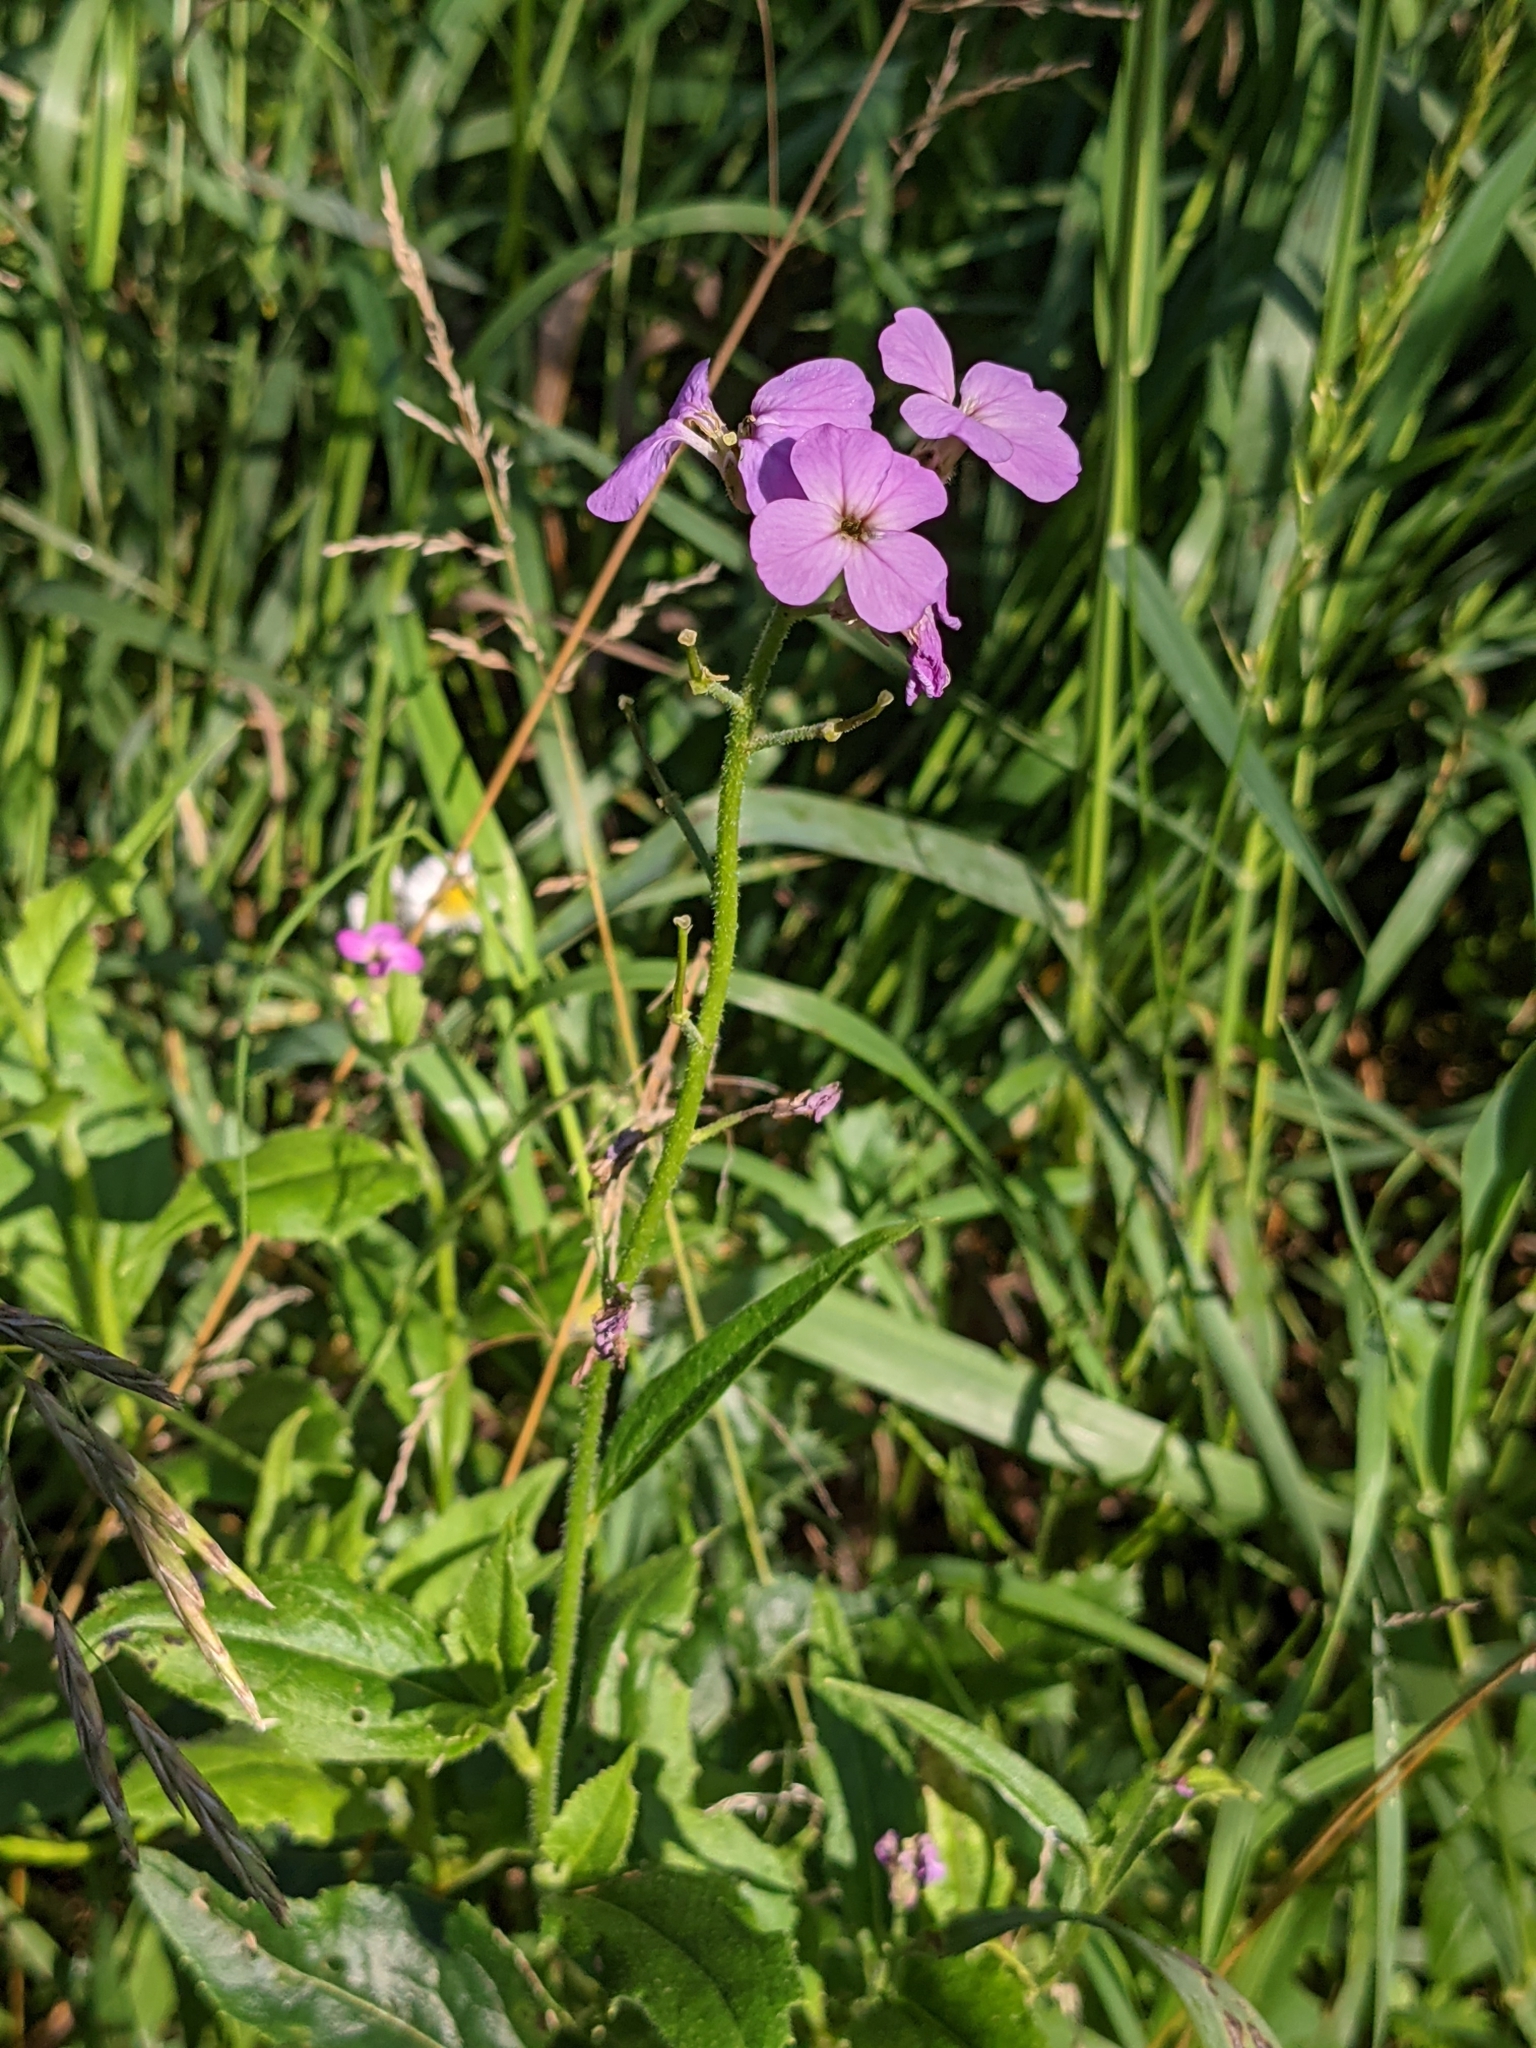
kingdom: Plantae
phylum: Tracheophyta
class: Magnoliopsida
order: Brassicales
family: Brassicaceae
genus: Hesperis
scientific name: Hesperis matronalis
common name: Dame's-violet
